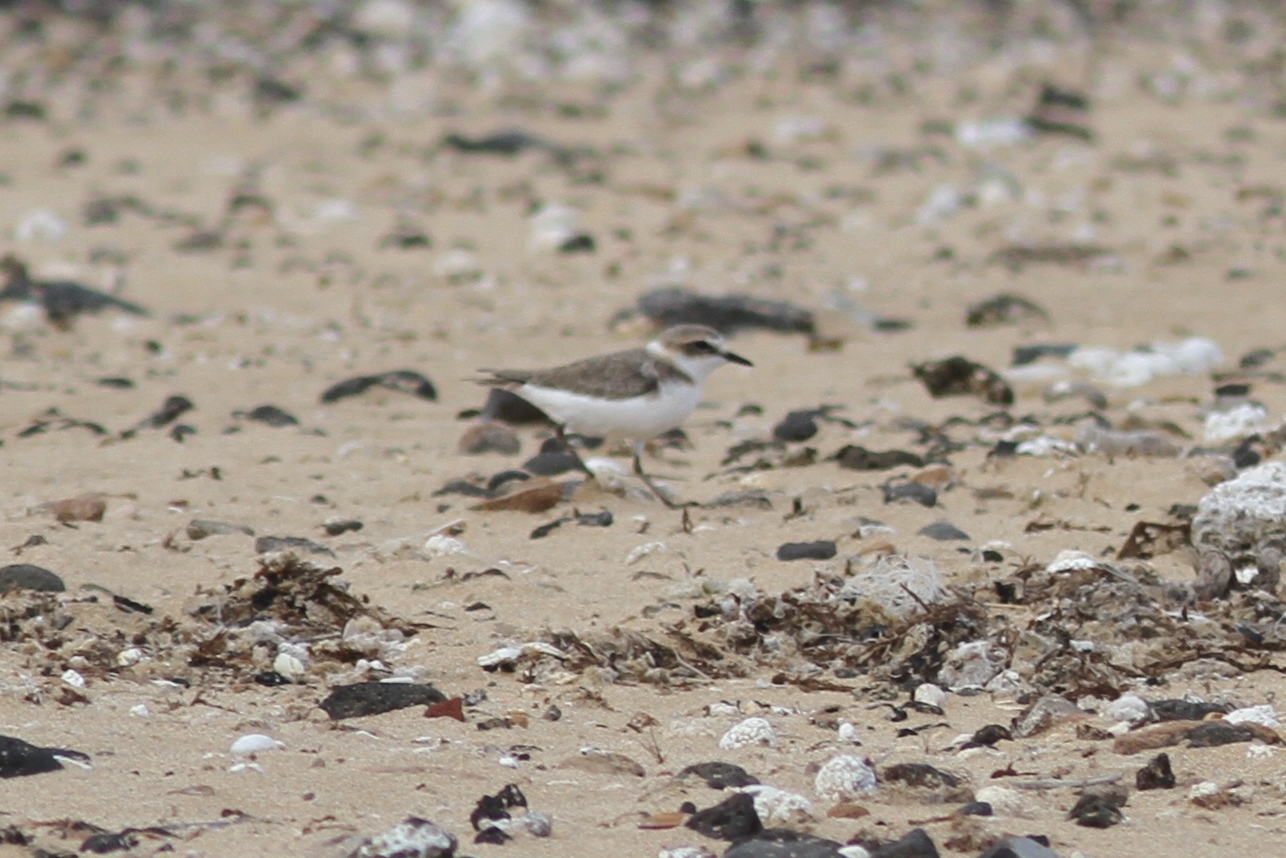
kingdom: Animalia
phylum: Chordata
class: Aves
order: Charadriiformes
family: Charadriidae
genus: Charadrius
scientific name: Charadrius alexandrinus
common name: Kentish plover
